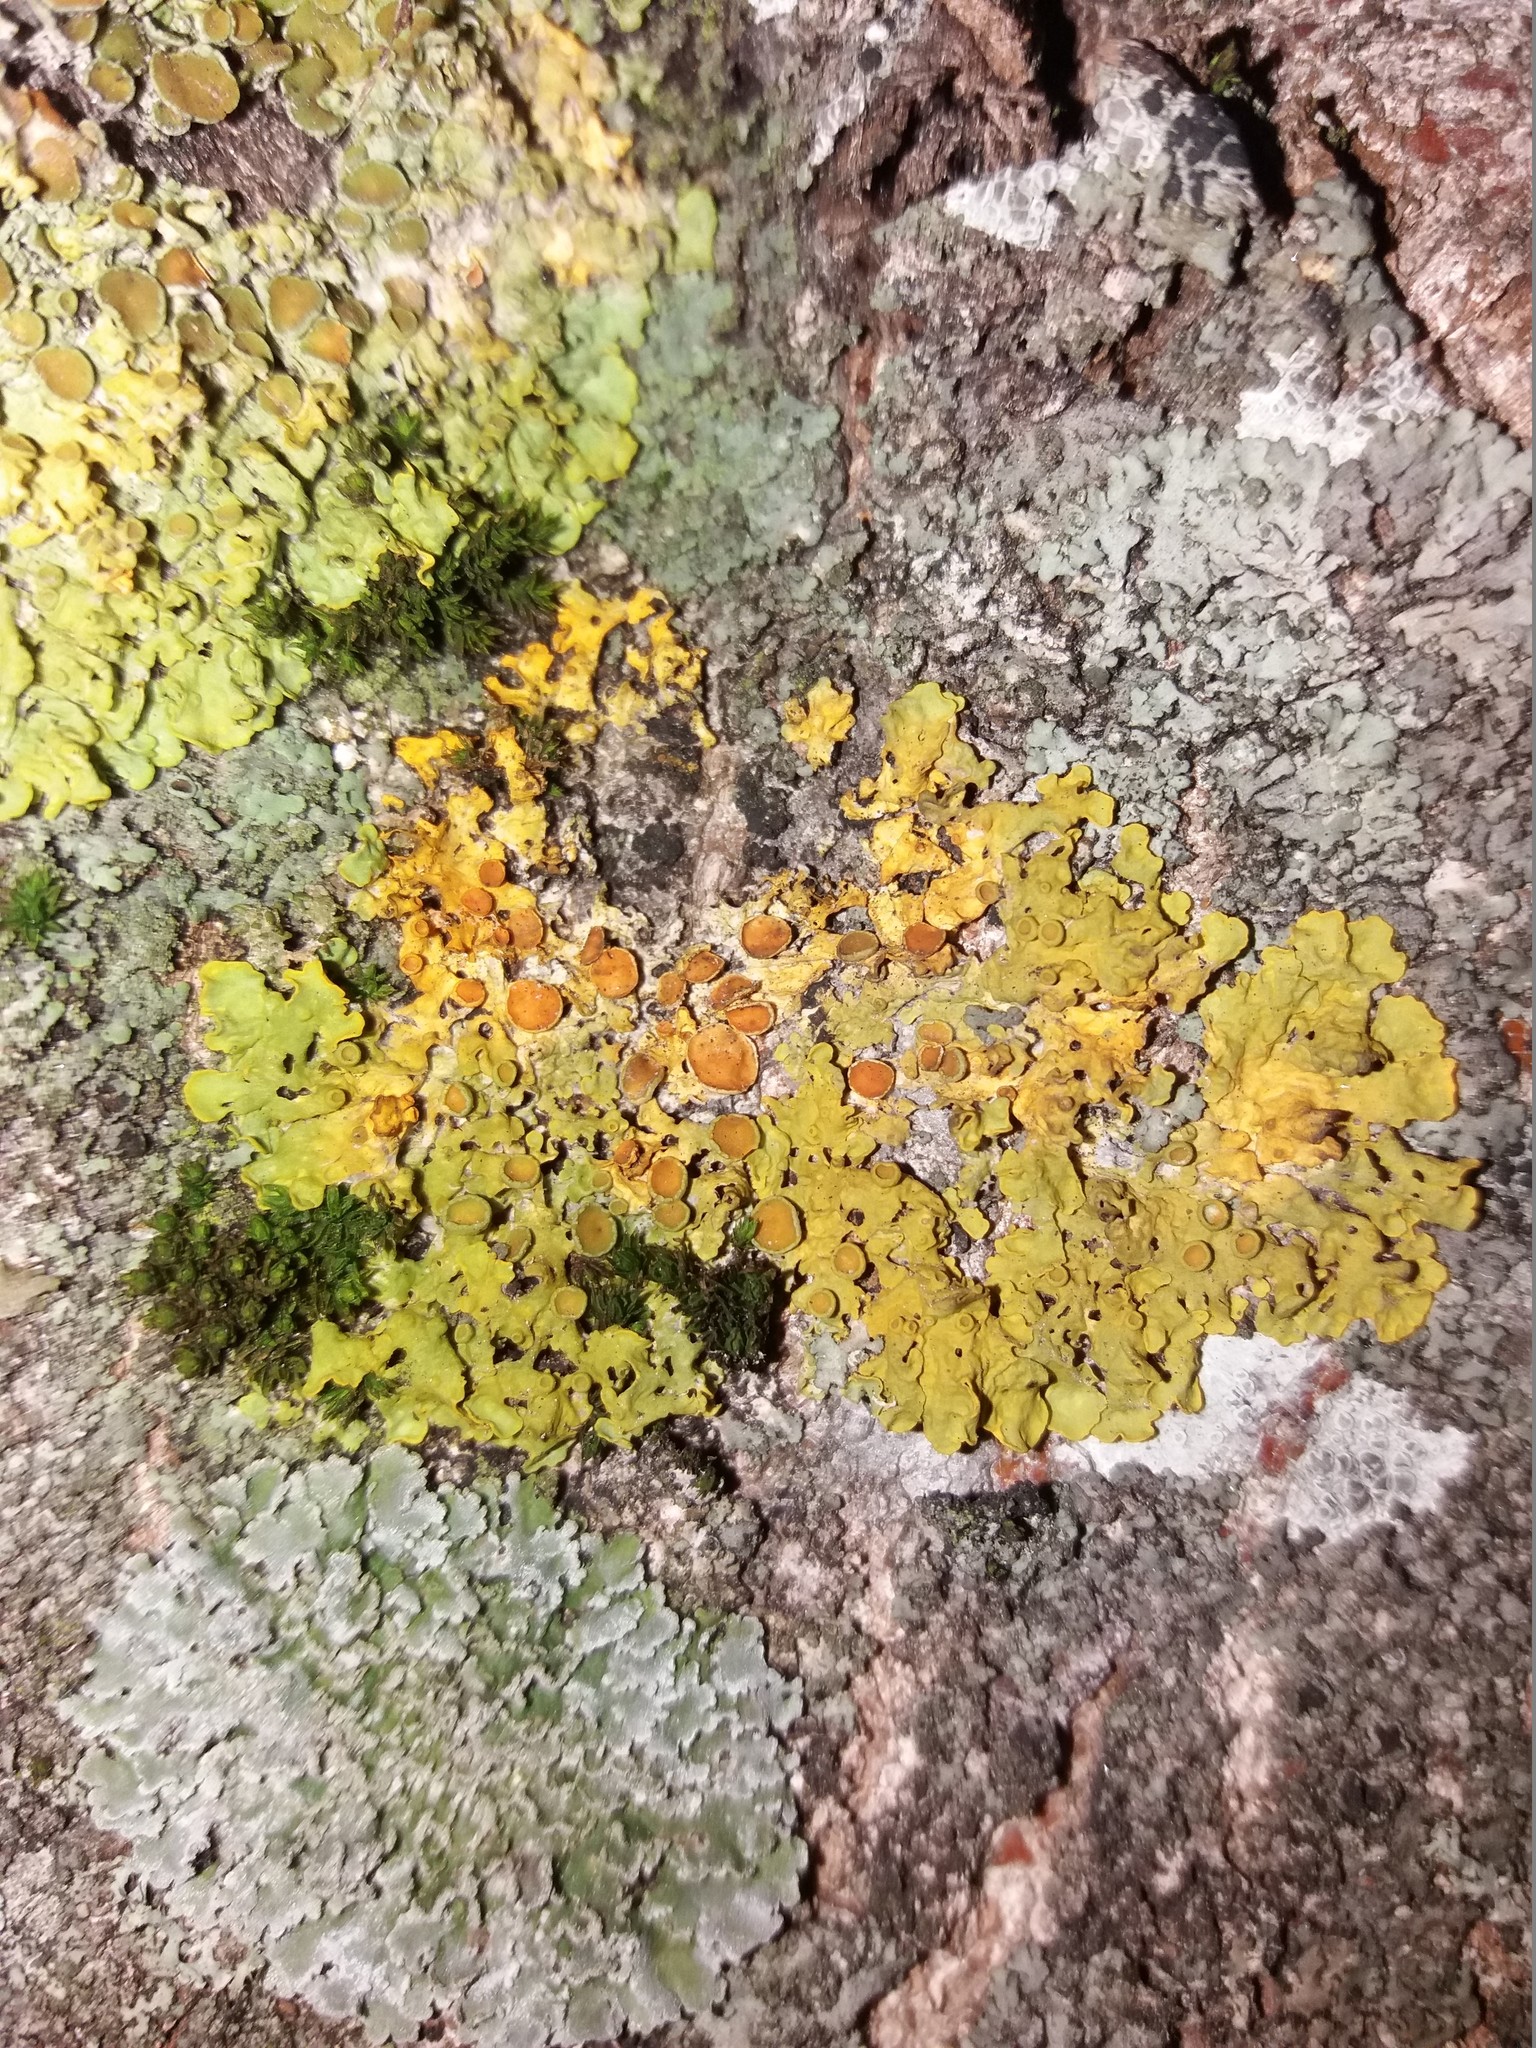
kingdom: Fungi
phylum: Ascomycota
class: Lecanoromycetes
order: Teloschistales
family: Teloschistaceae
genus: Xanthoria
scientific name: Xanthoria parietina
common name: Common orange lichen
